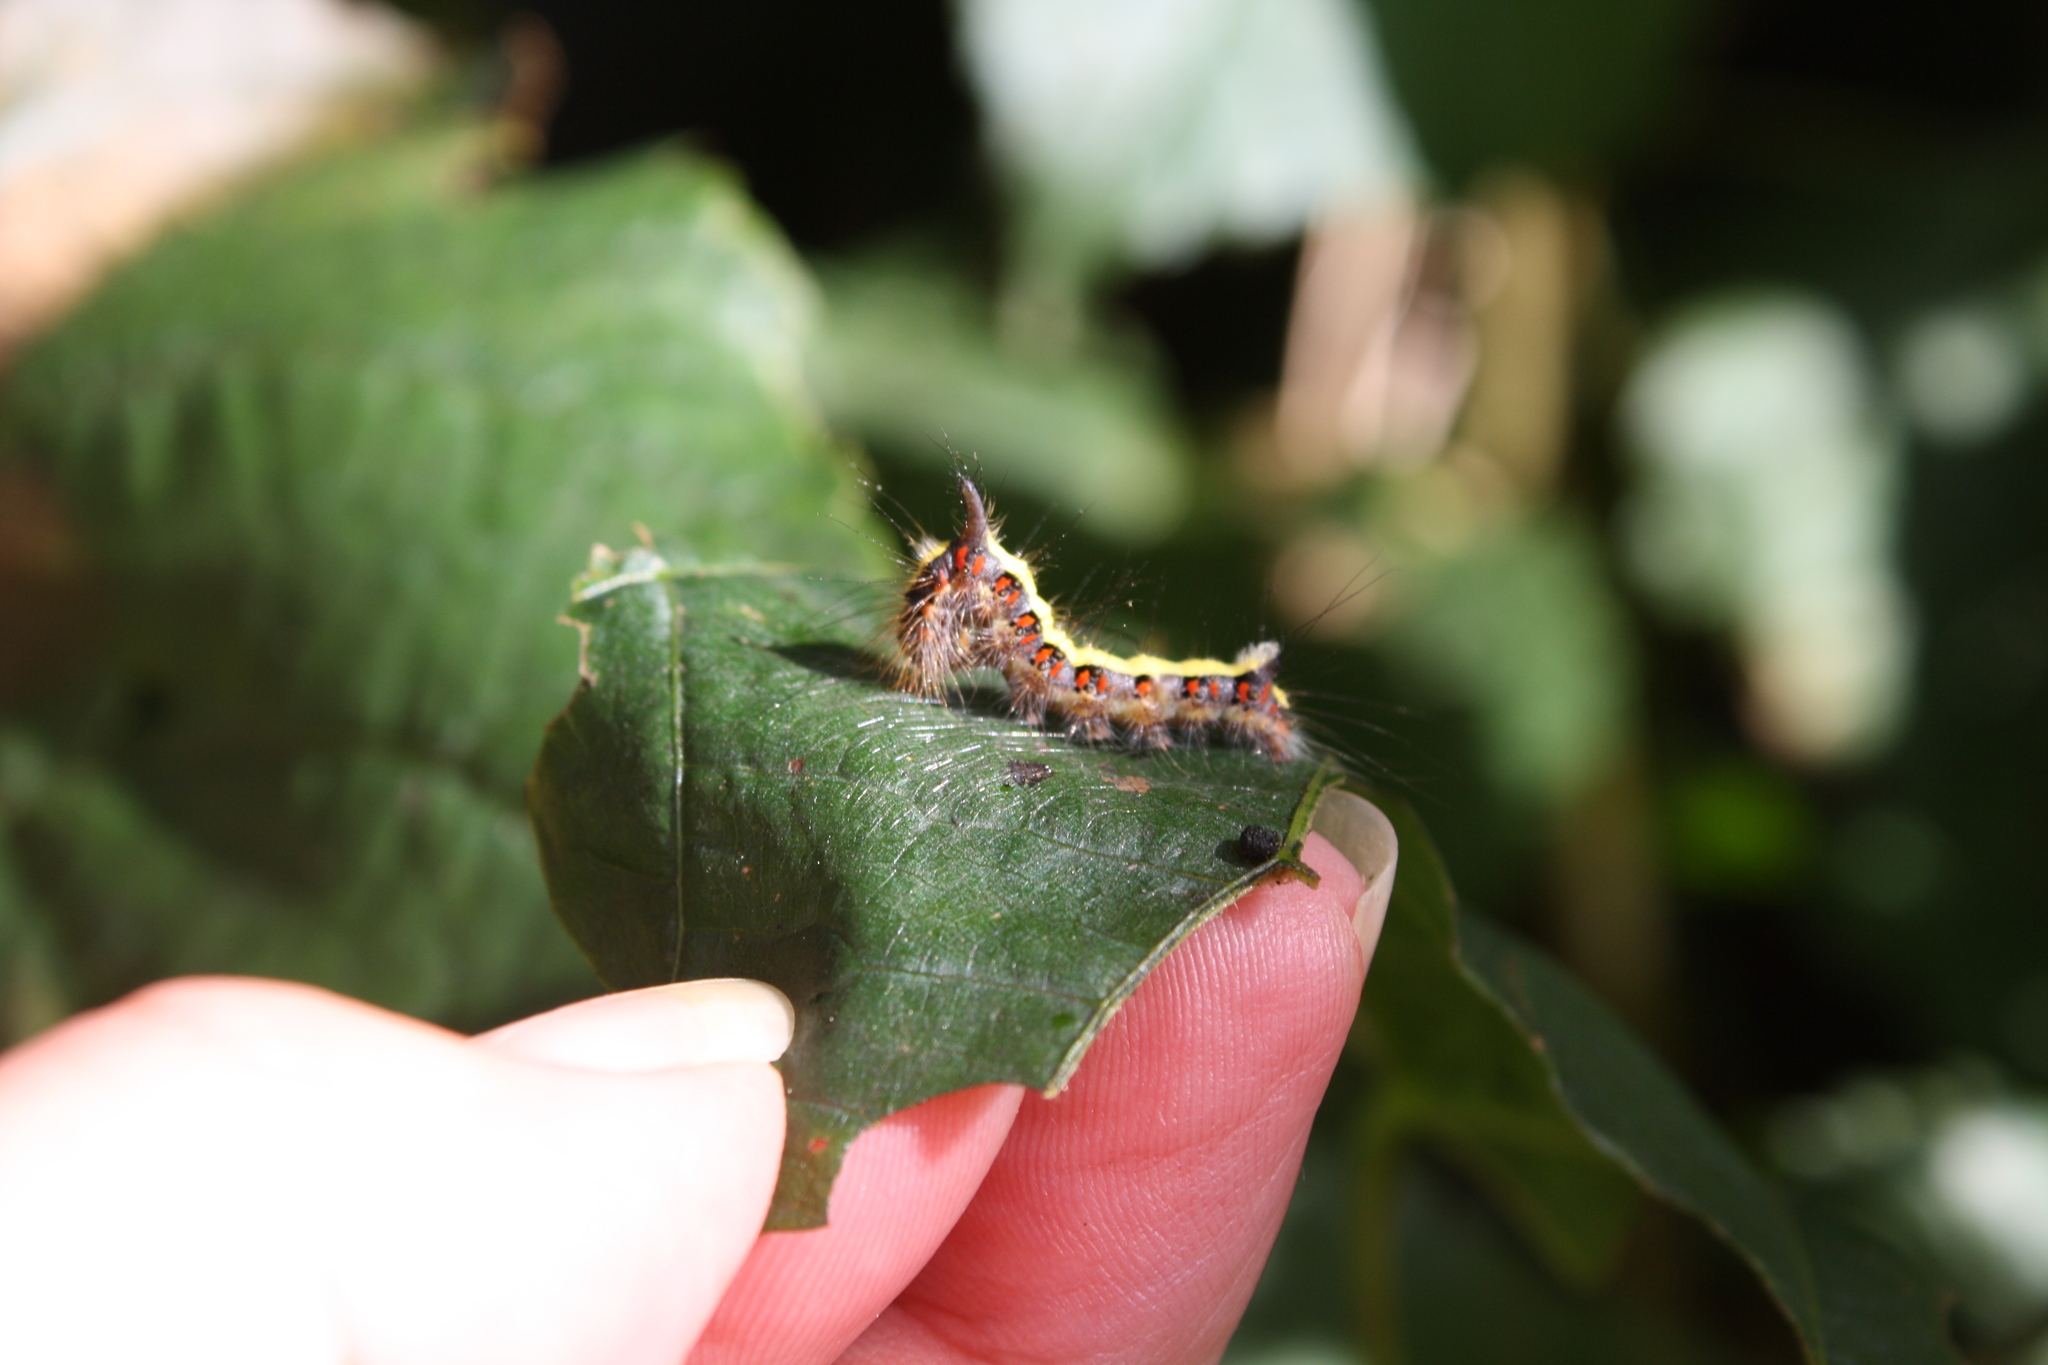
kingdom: Animalia
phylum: Arthropoda
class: Insecta
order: Lepidoptera
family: Noctuidae
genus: Acronicta
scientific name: Acronicta psi
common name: Grey dagger
